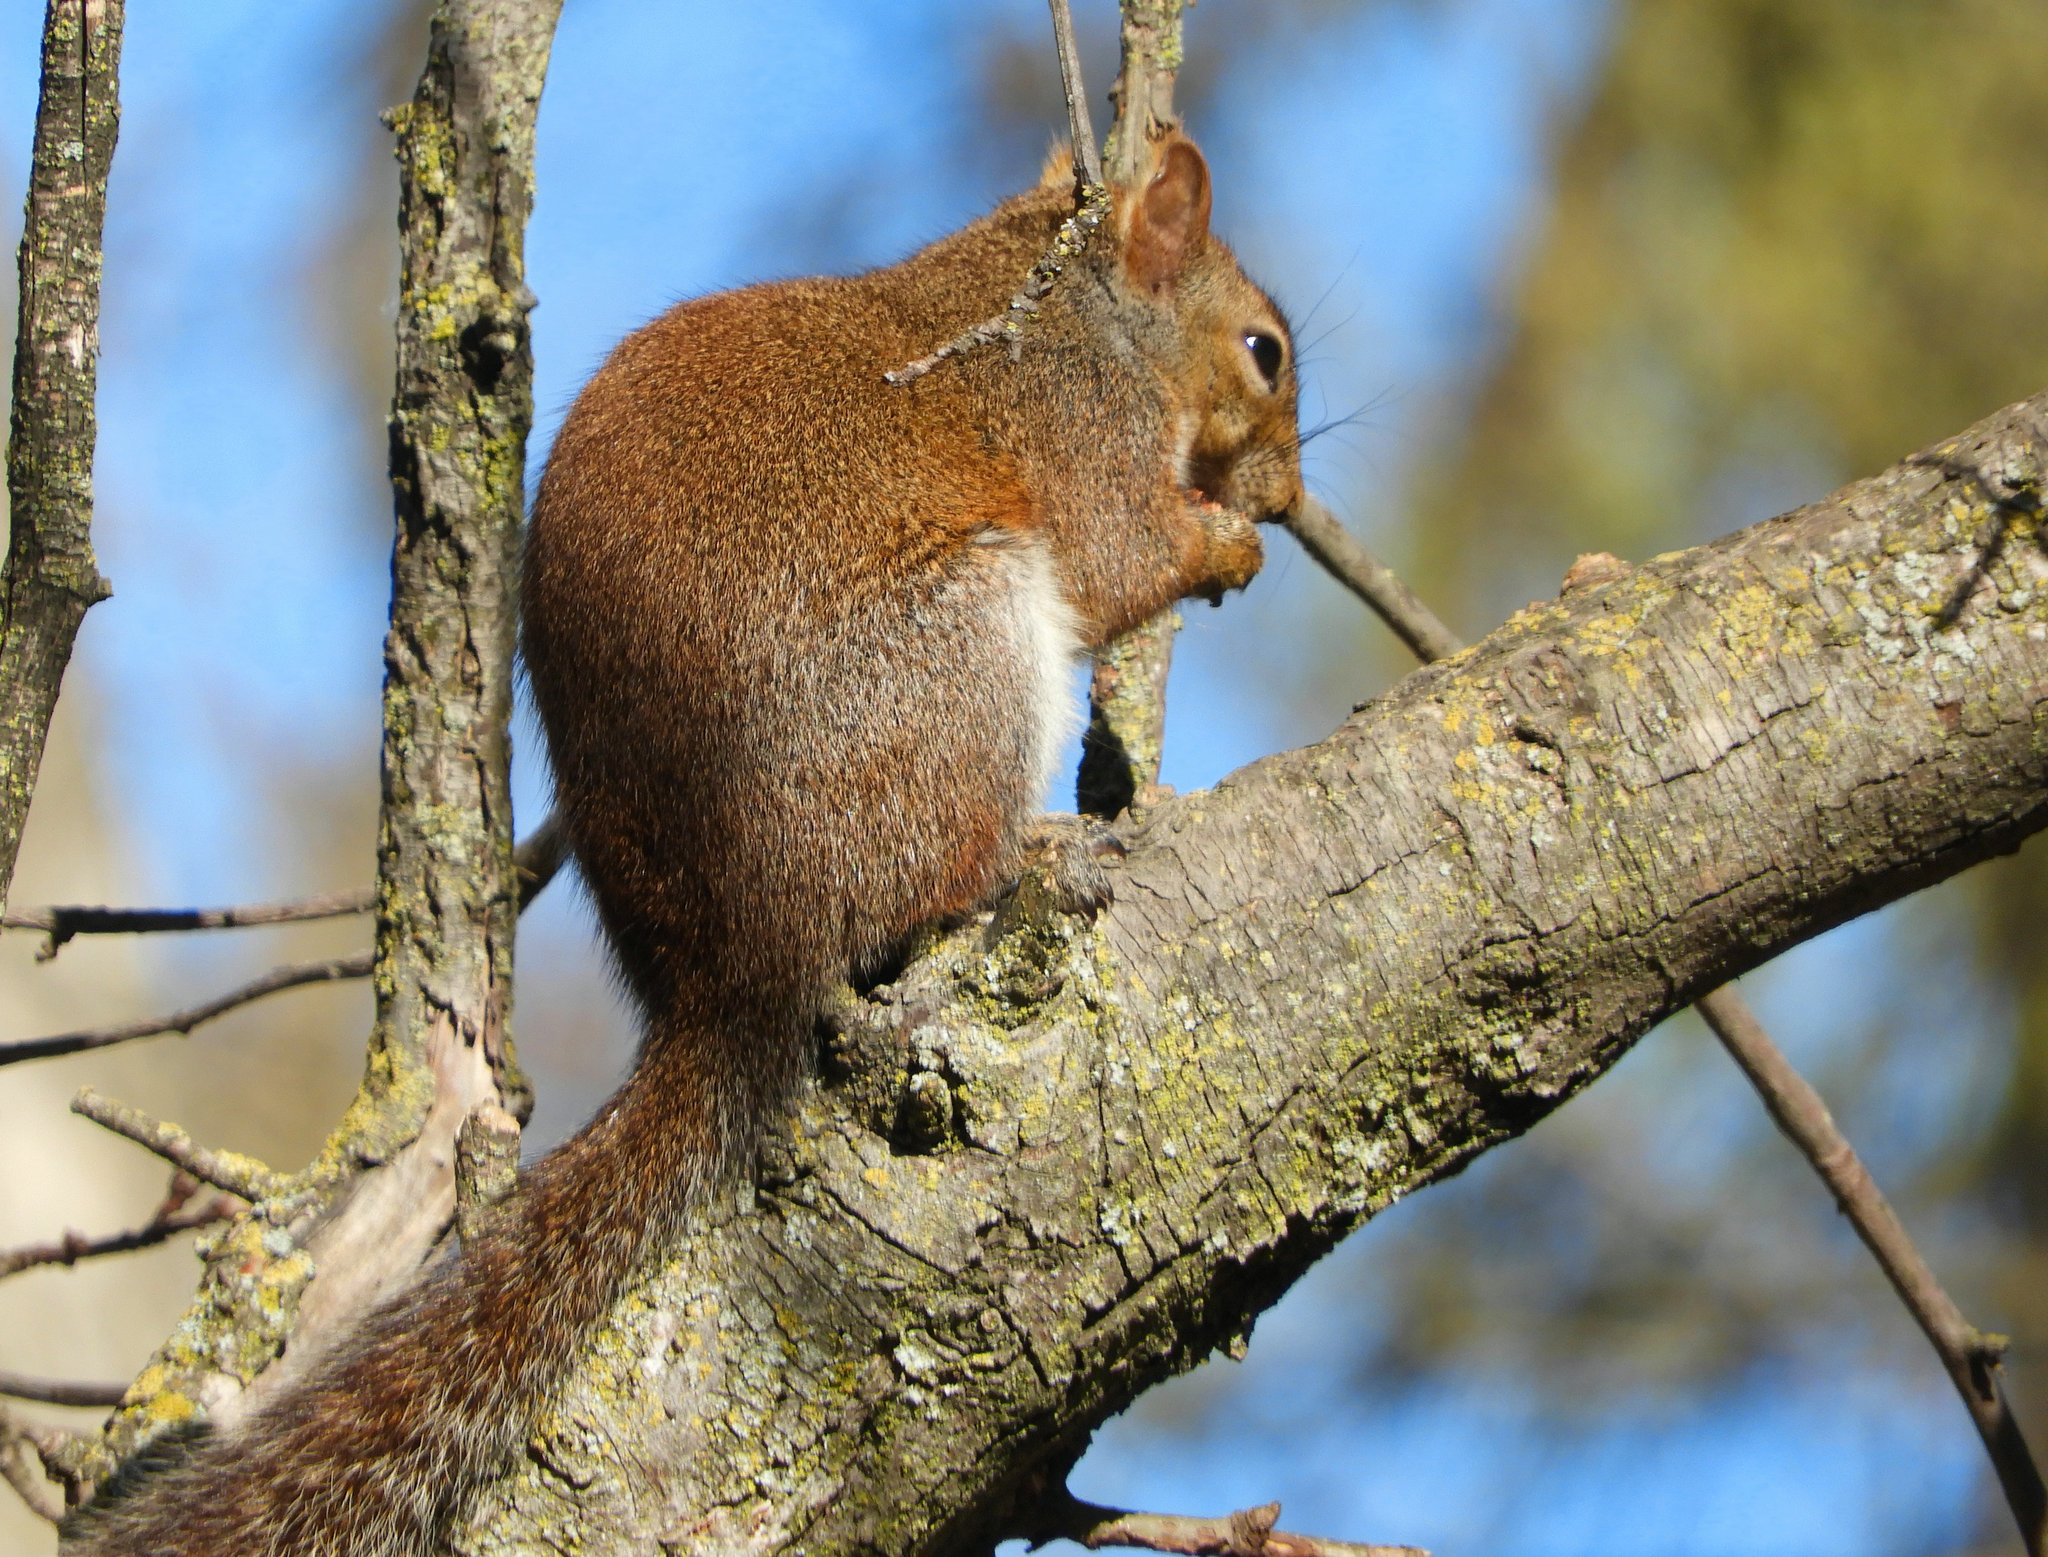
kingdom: Animalia
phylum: Chordata
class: Mammalia
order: Rodentia
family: Sciuridae
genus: Sciurus
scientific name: Sciurus carolinensis
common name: Eastern gray squirrel
